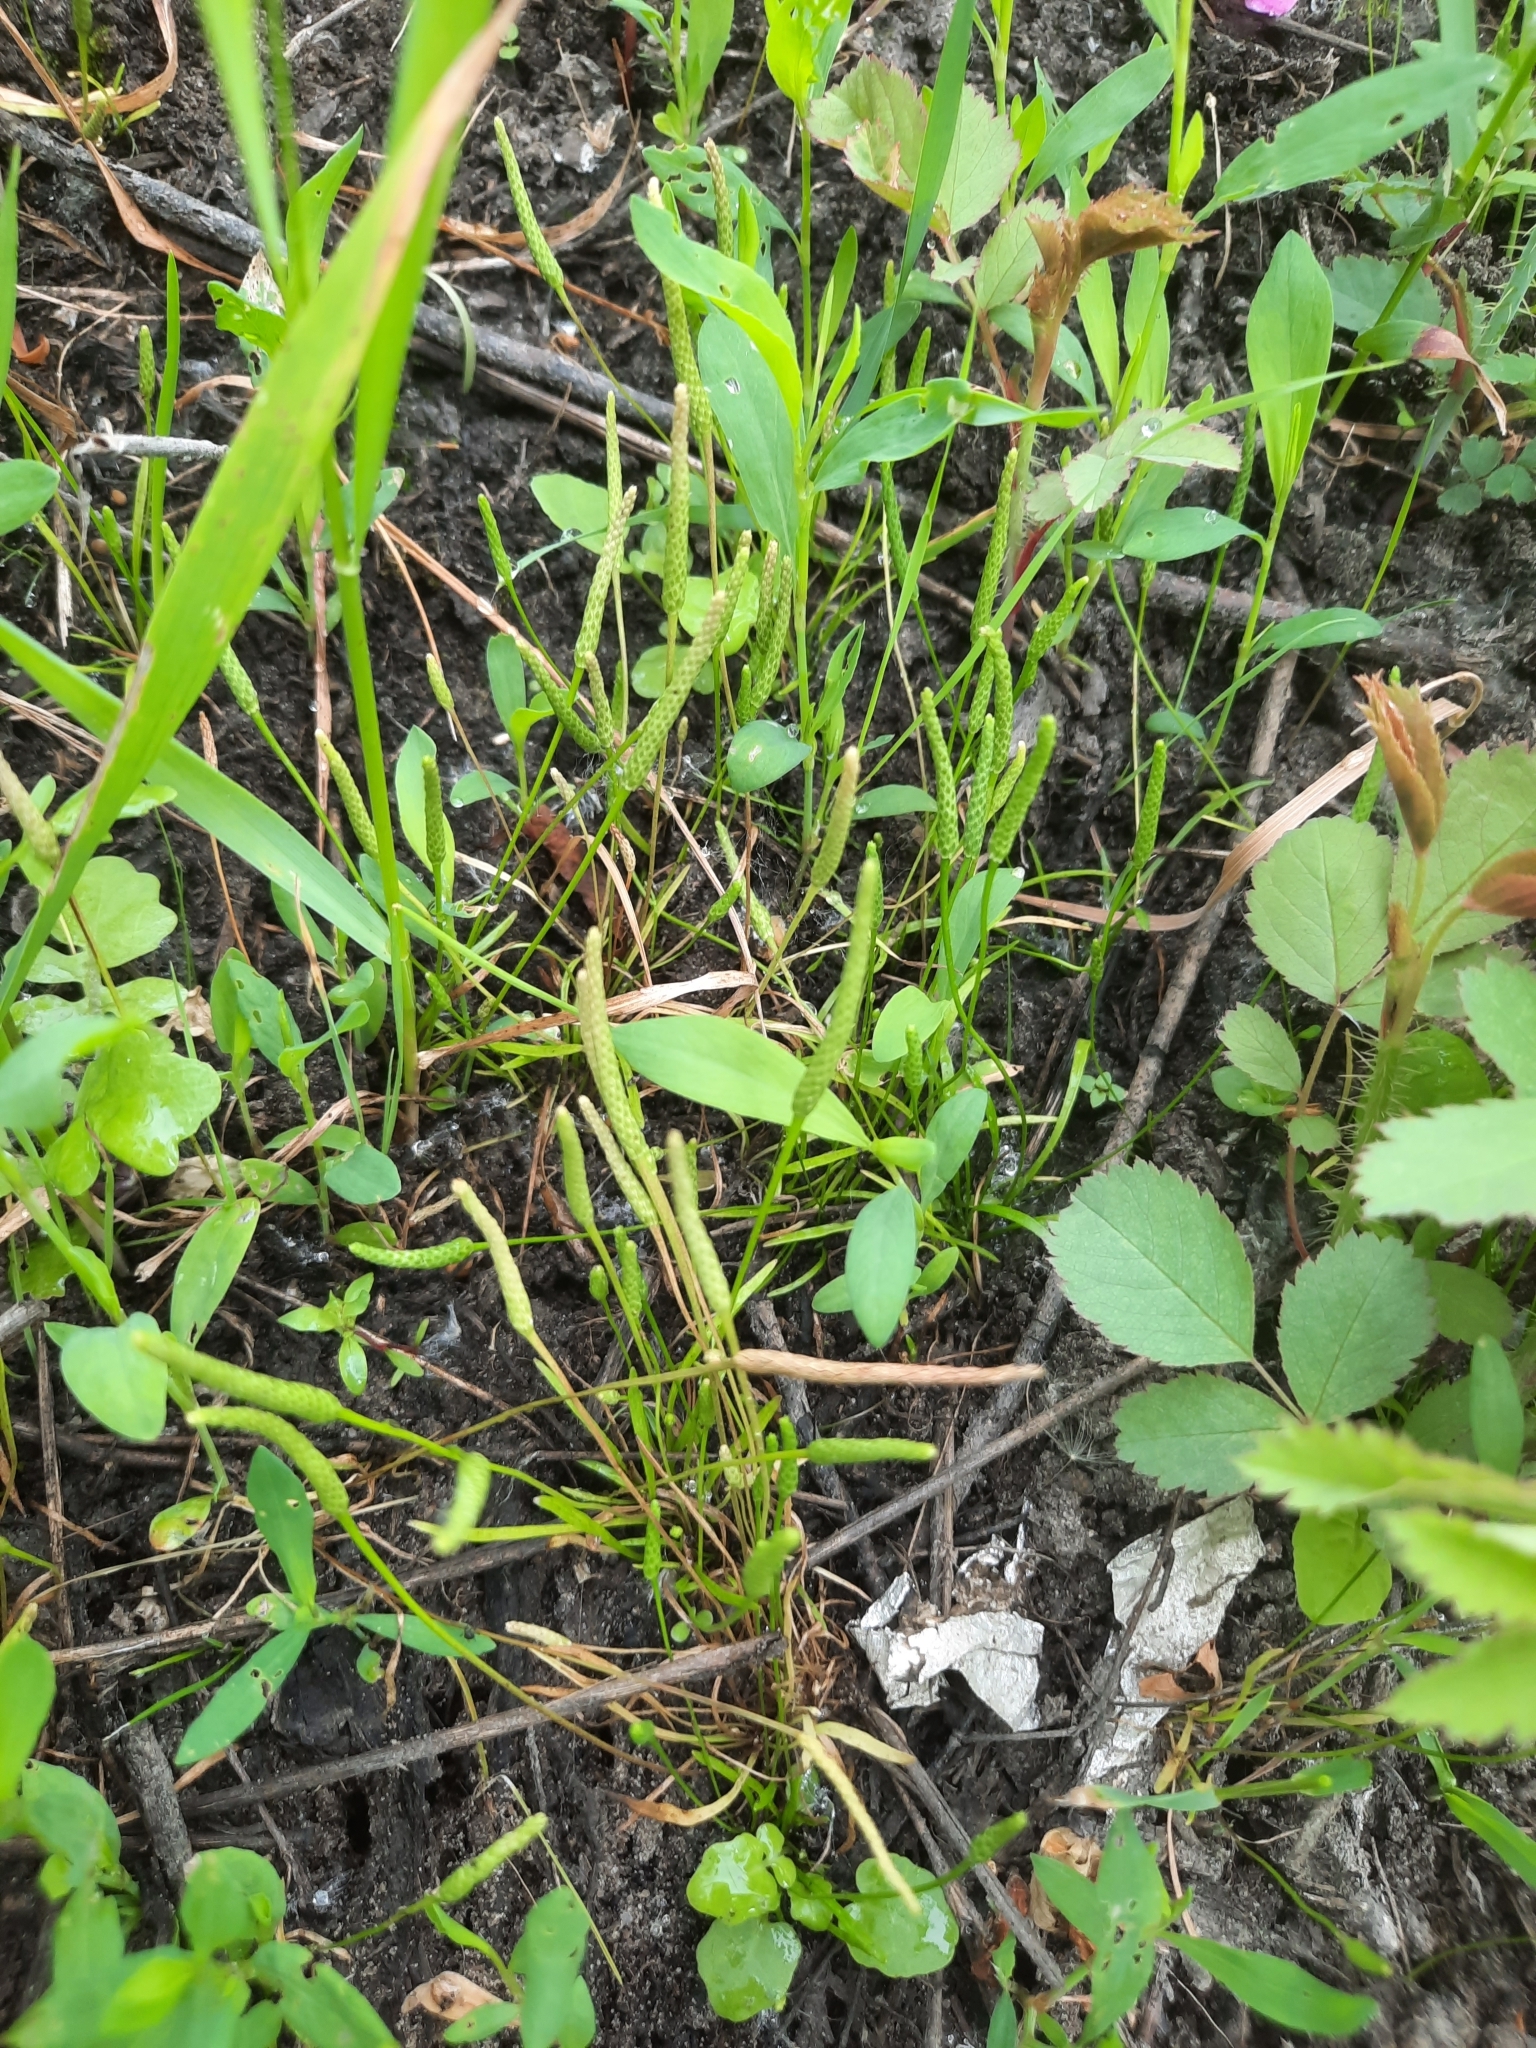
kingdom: Plantae
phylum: Tracheophyta
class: Magnoliopsida
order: Ranunculales
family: Ranunculaceae
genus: Myosurus
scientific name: Myosurus minimus
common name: Mousetail
